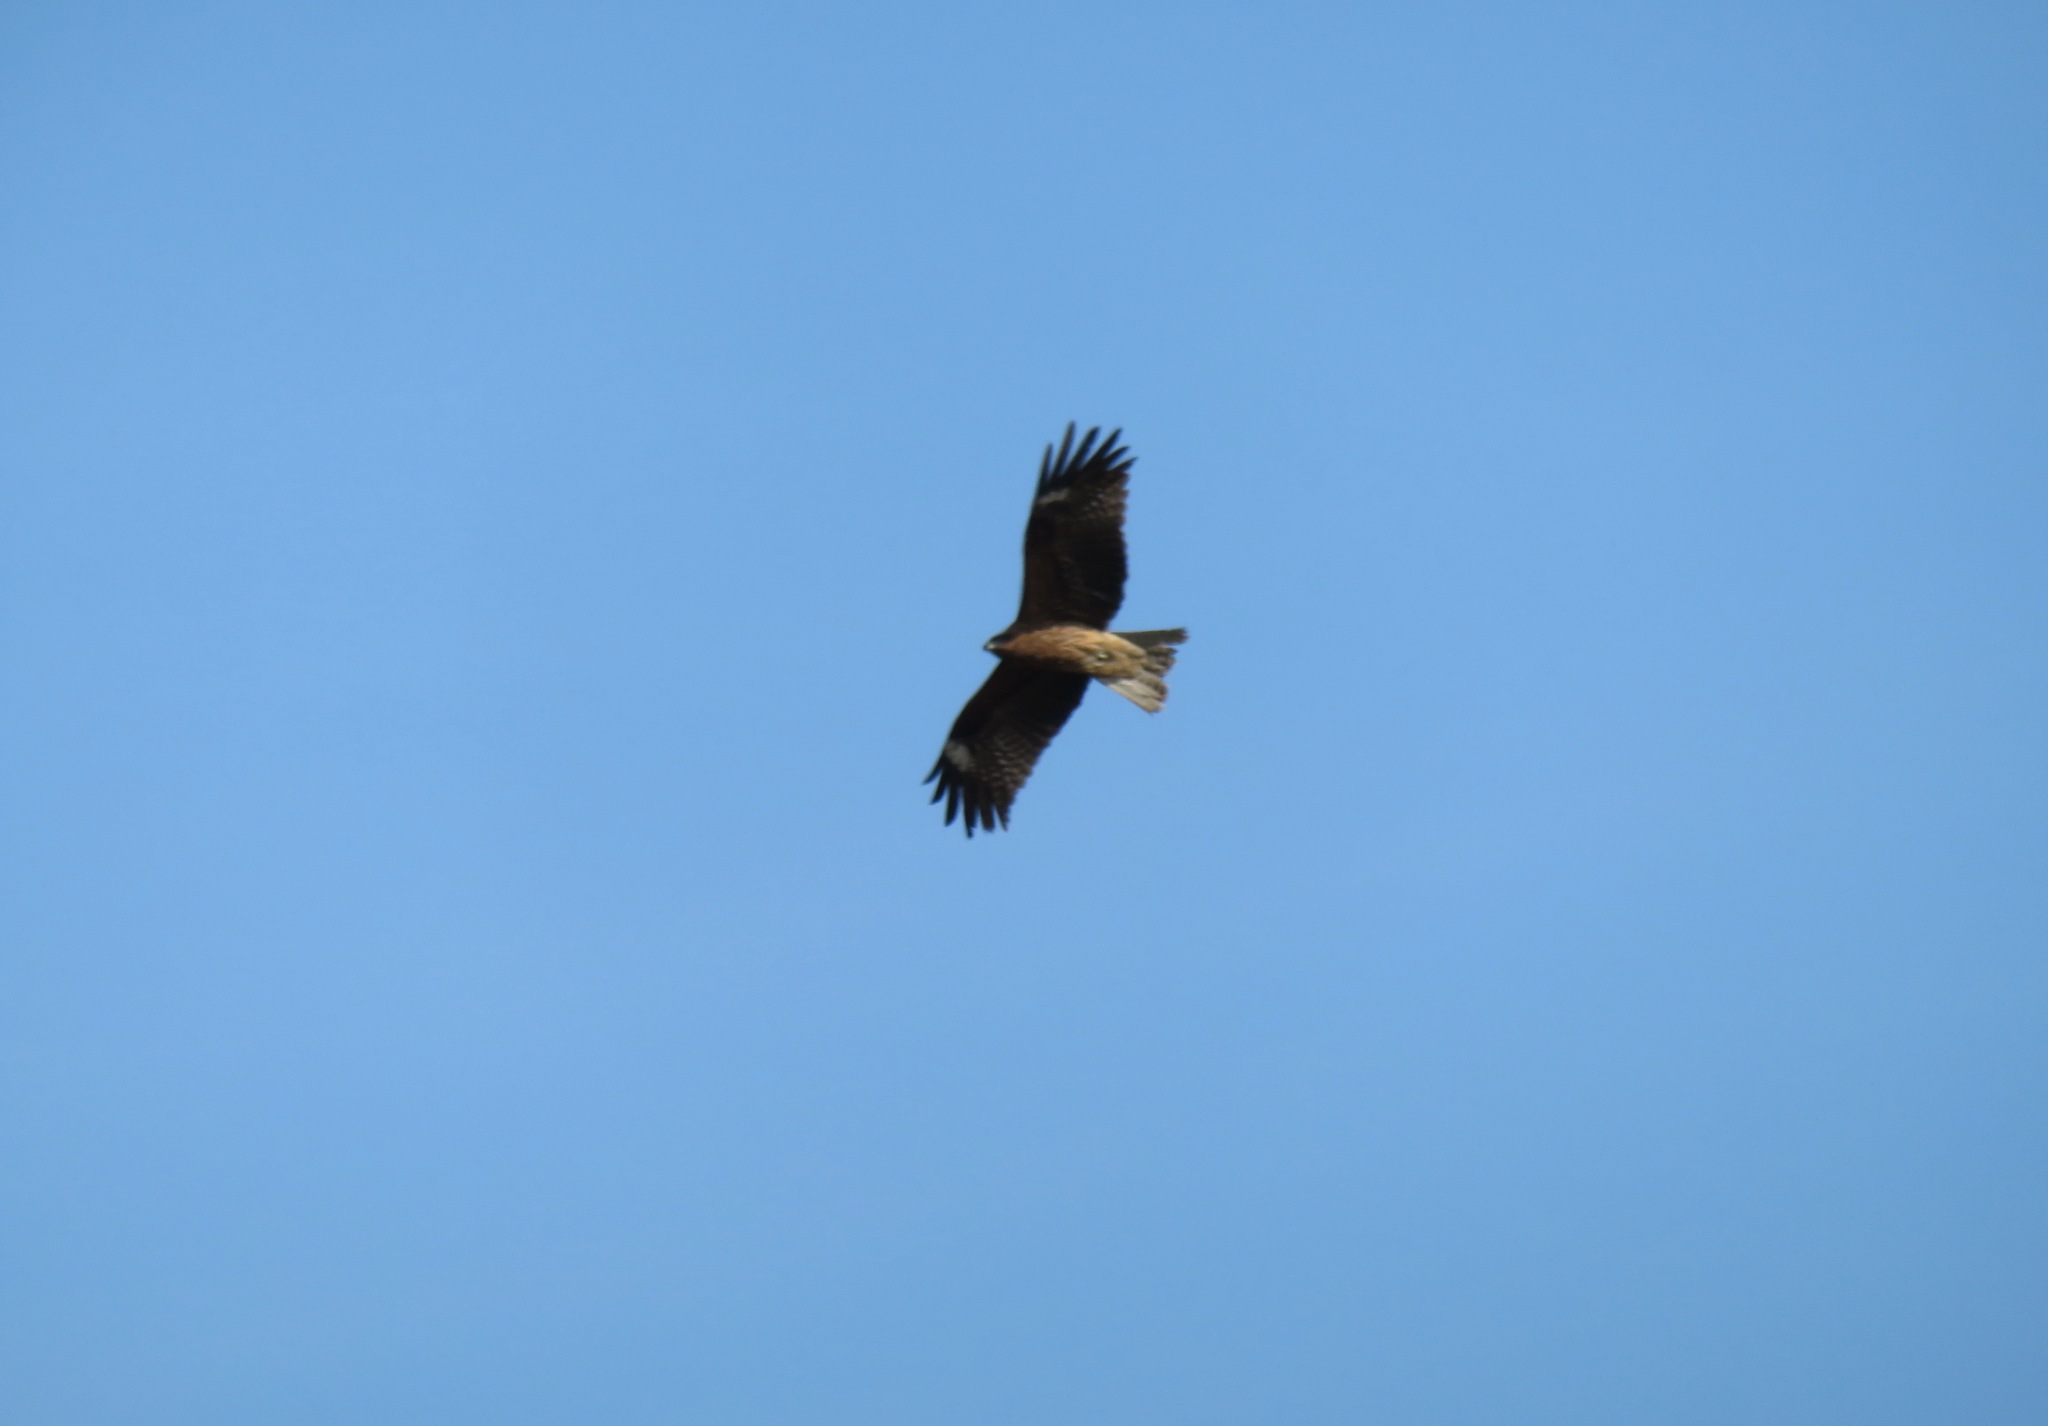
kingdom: Animalia
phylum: Chordata
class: Aves
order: Accipitriformes
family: Accipitridae
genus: Milvus
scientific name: Milvus migrans
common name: Black kite
